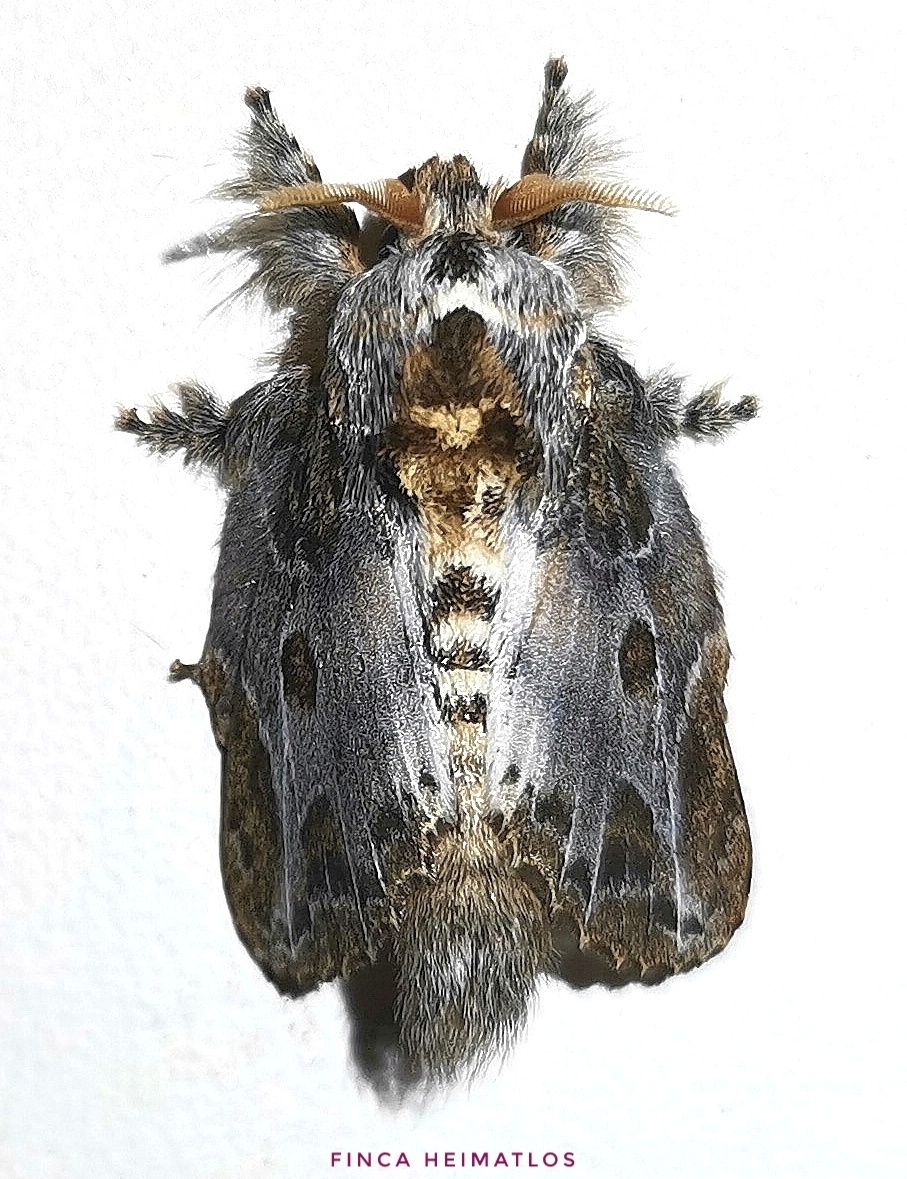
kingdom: Animalia
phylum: Arthropoda
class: Insecta
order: Lepidoptera
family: Lasiocampidae
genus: Euglyphis
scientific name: Euglyphis laronia
